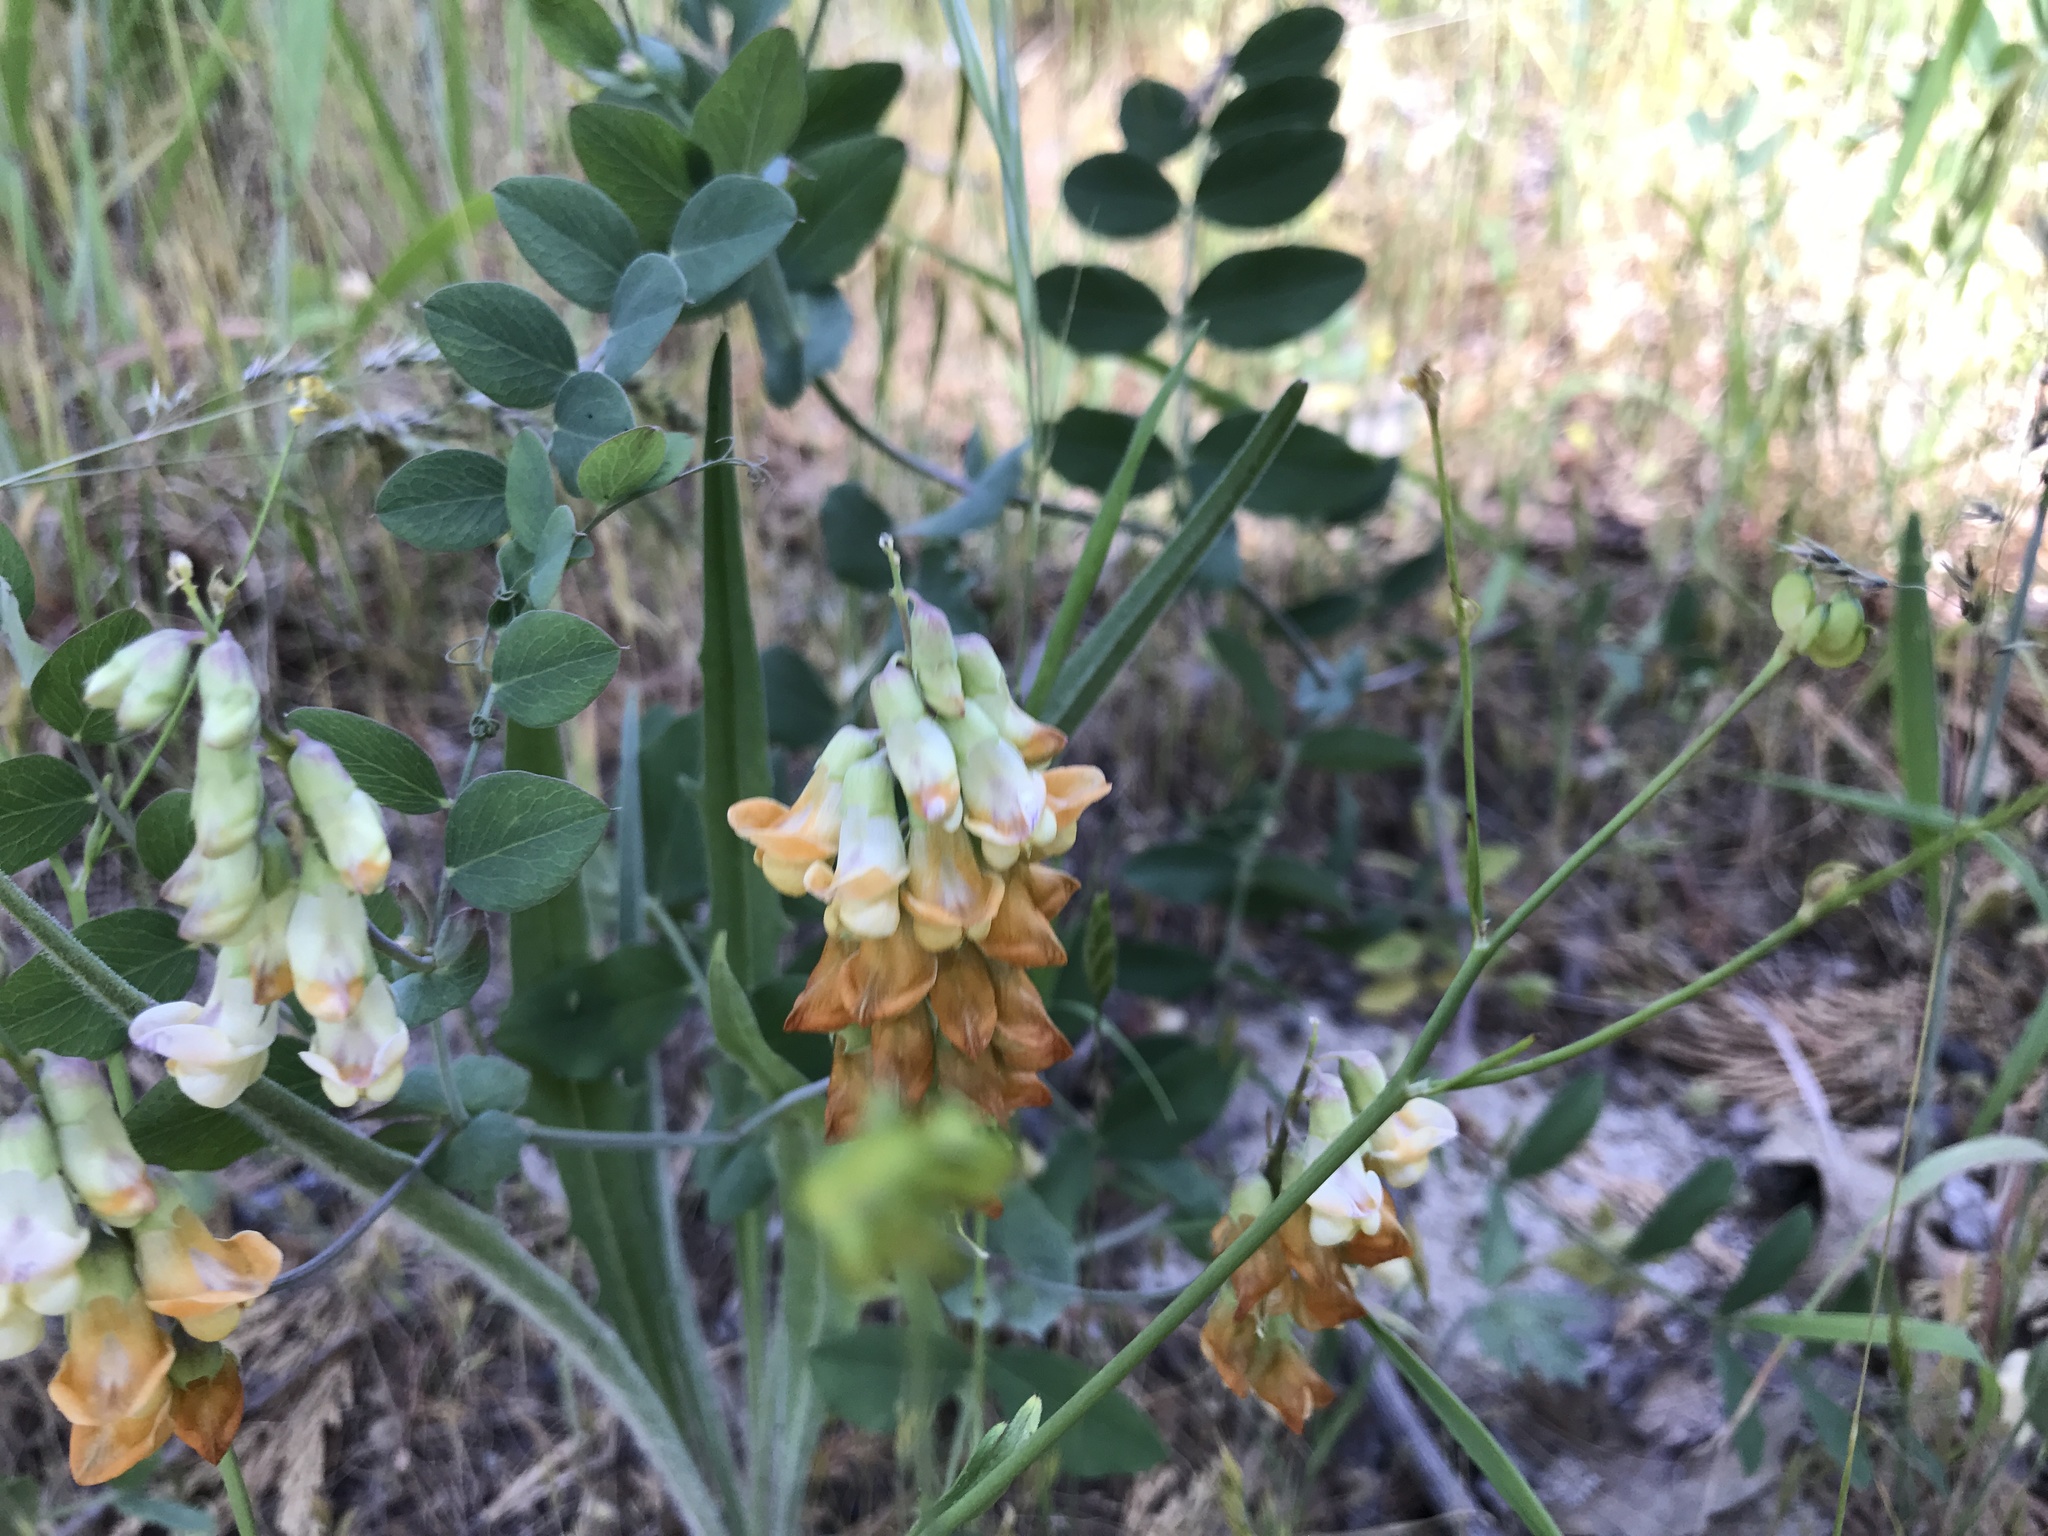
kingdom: Plantae
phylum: Tracheophyta
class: Magnoliopsida
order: Fabales
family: Fabaceae
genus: Lathyrus
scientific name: Lathyrus sulphureus
